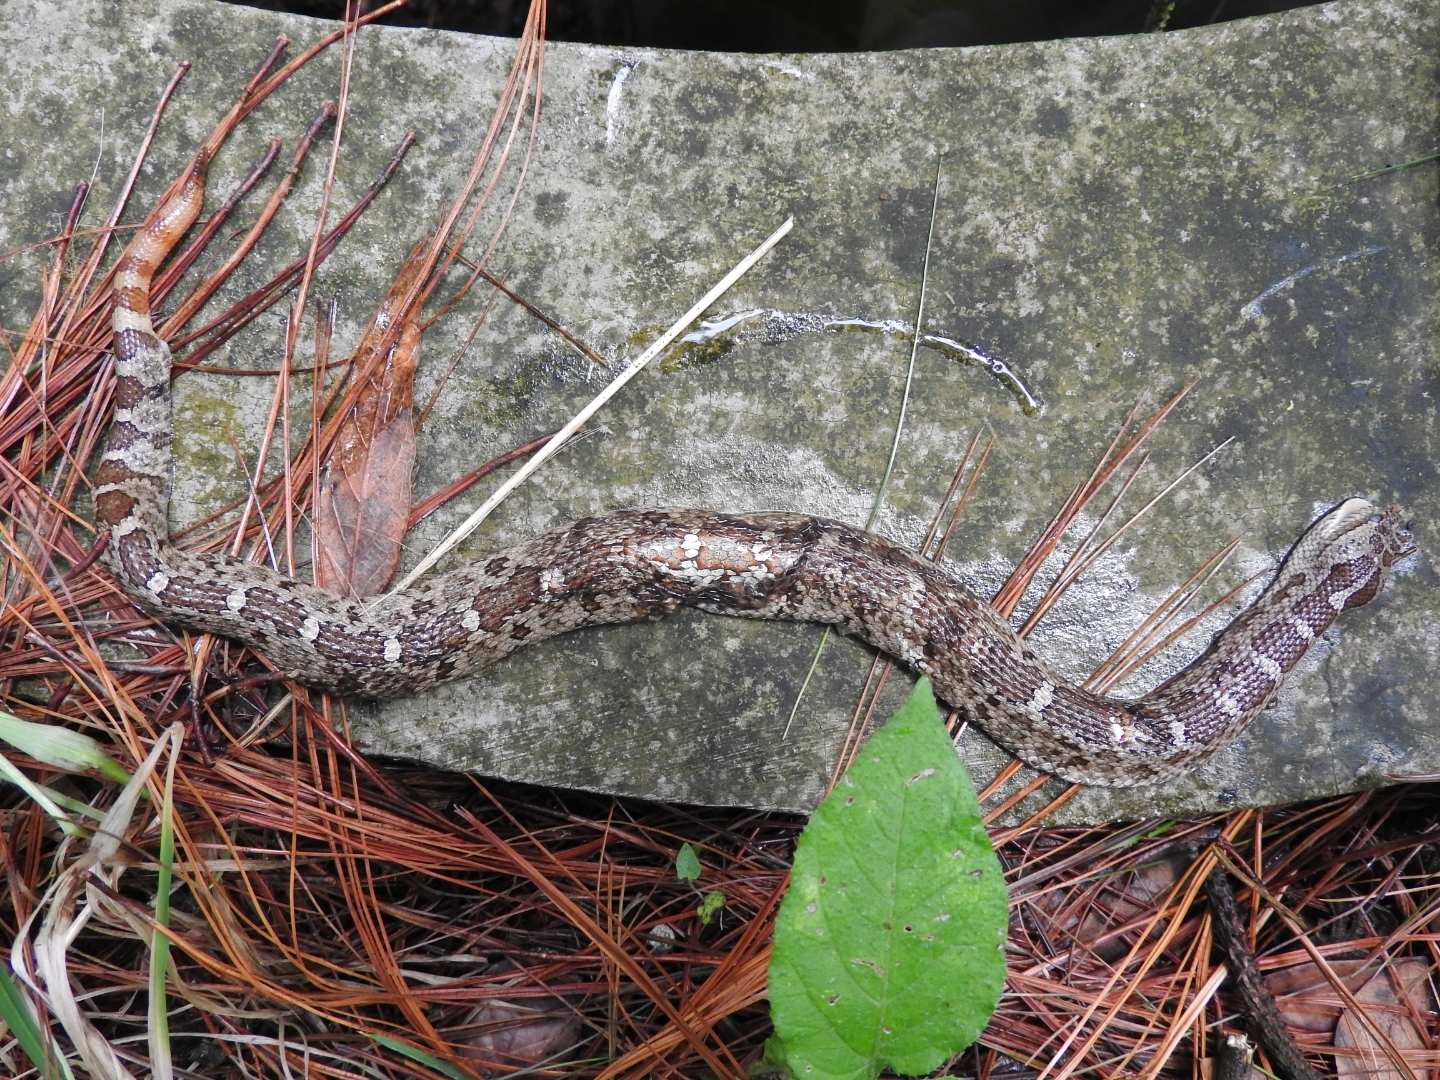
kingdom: Animalia
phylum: Chordata
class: Squamata
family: Viperidae
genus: Crotalus
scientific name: Crotalus aquilus
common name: Queretaran dusky rattlesnake
